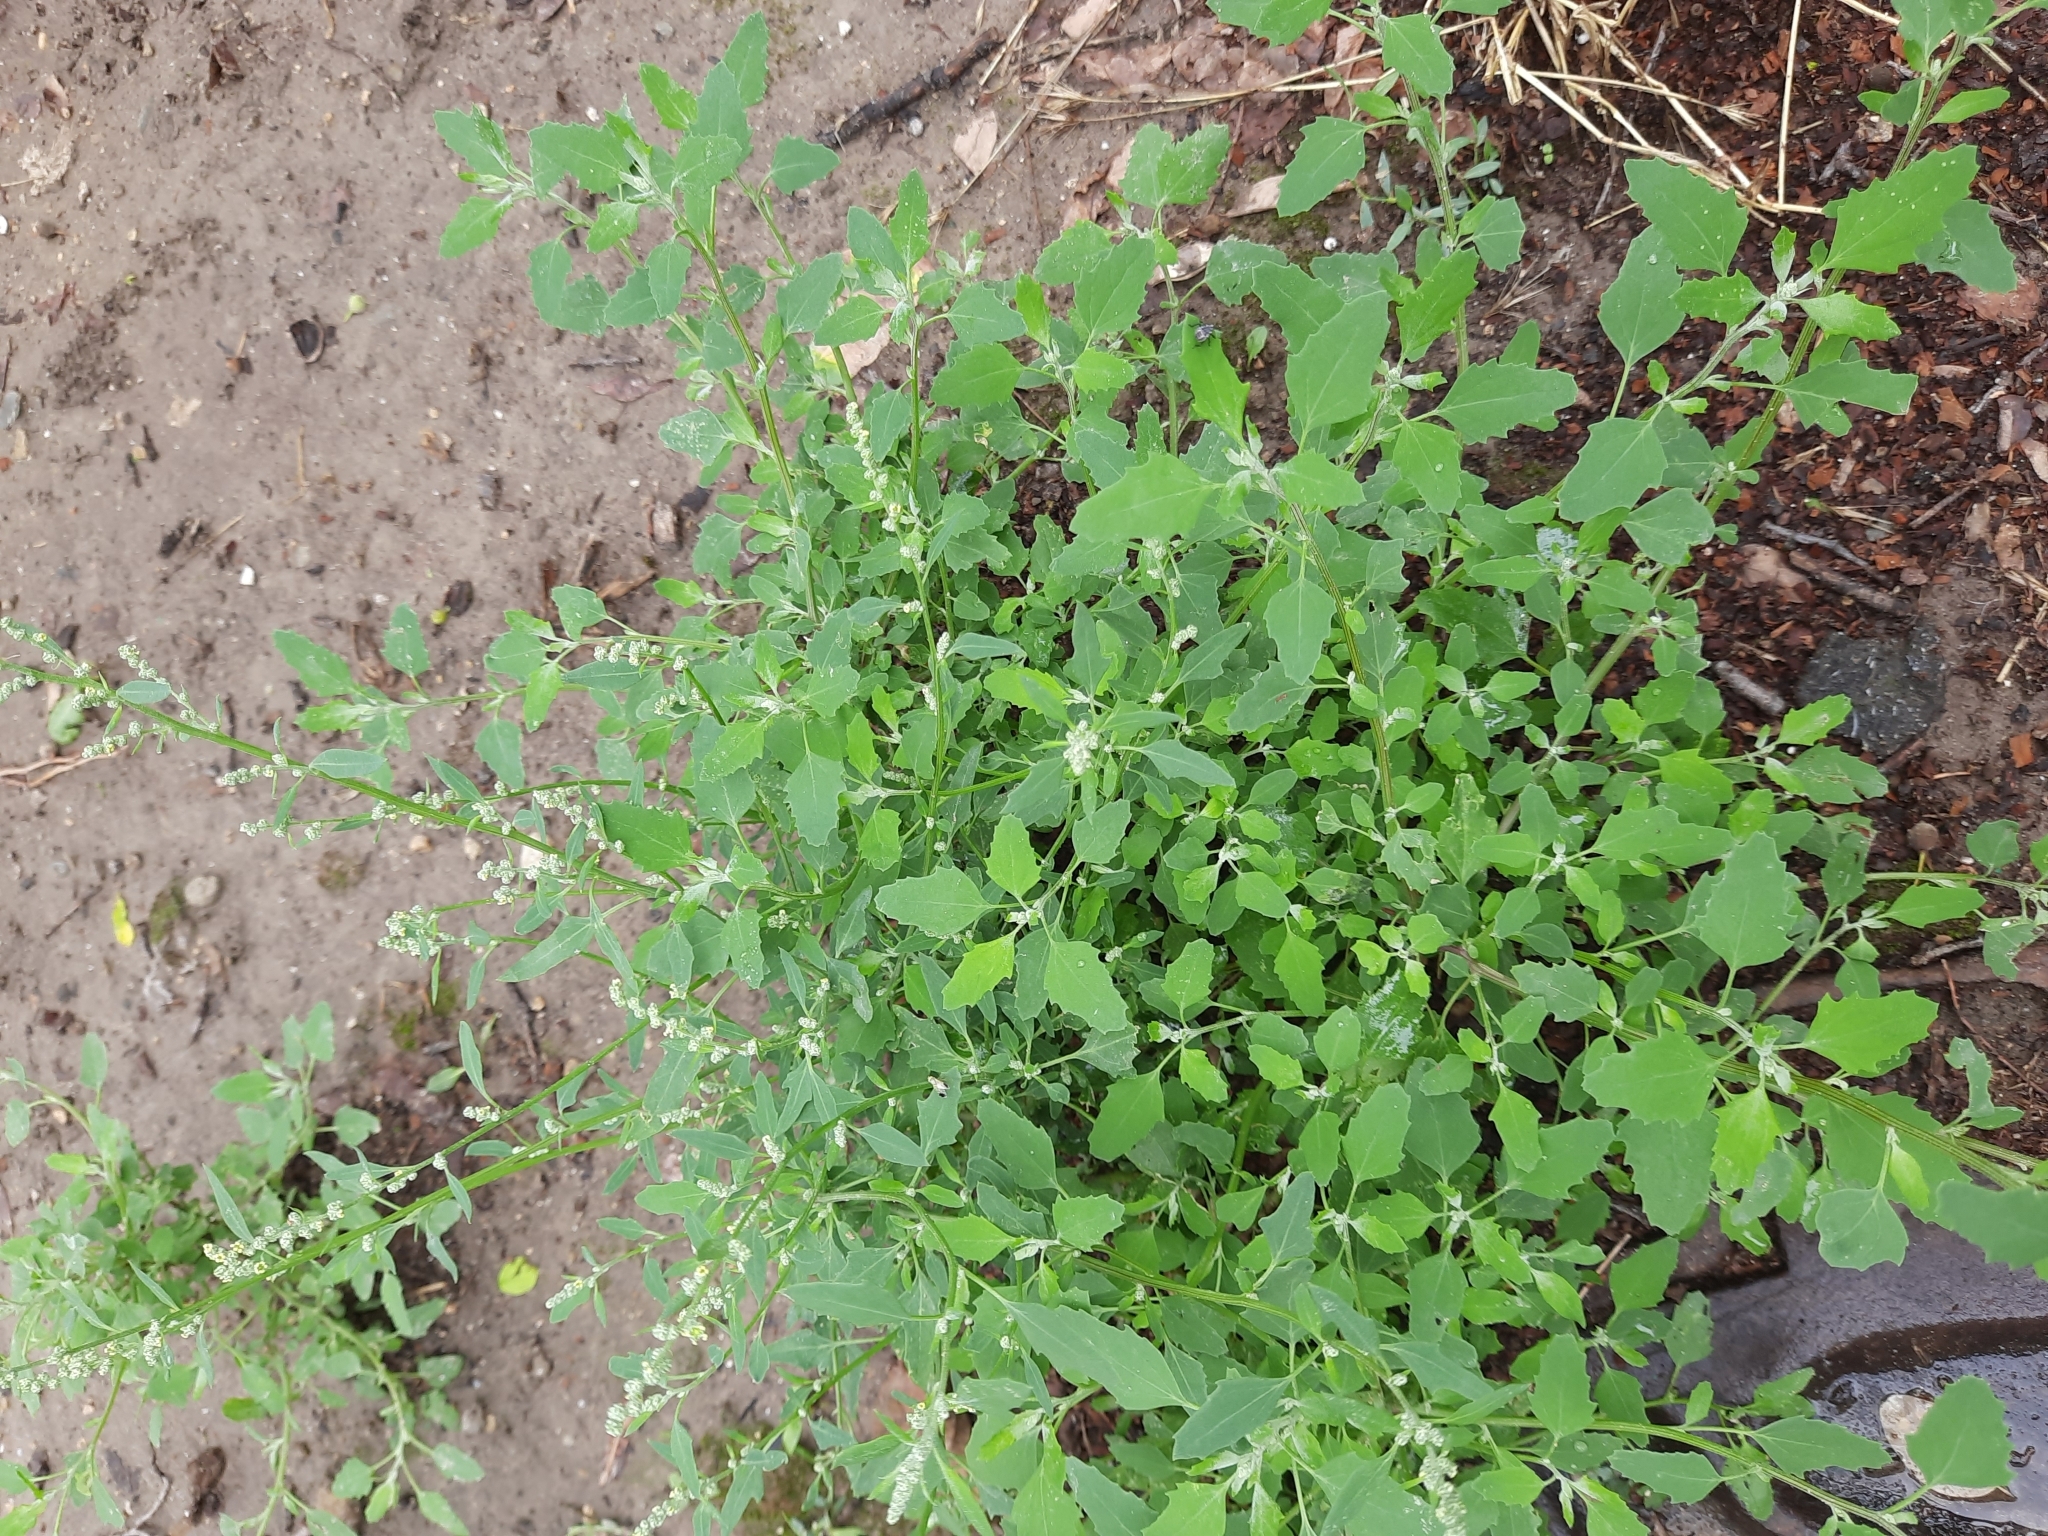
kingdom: Plantae
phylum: Tracheophyta
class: Magnoliopsida
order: Caryophyllales
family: Amaranthaceae
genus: Chenopodium
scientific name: Chenopodium album
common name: Fat-hen
